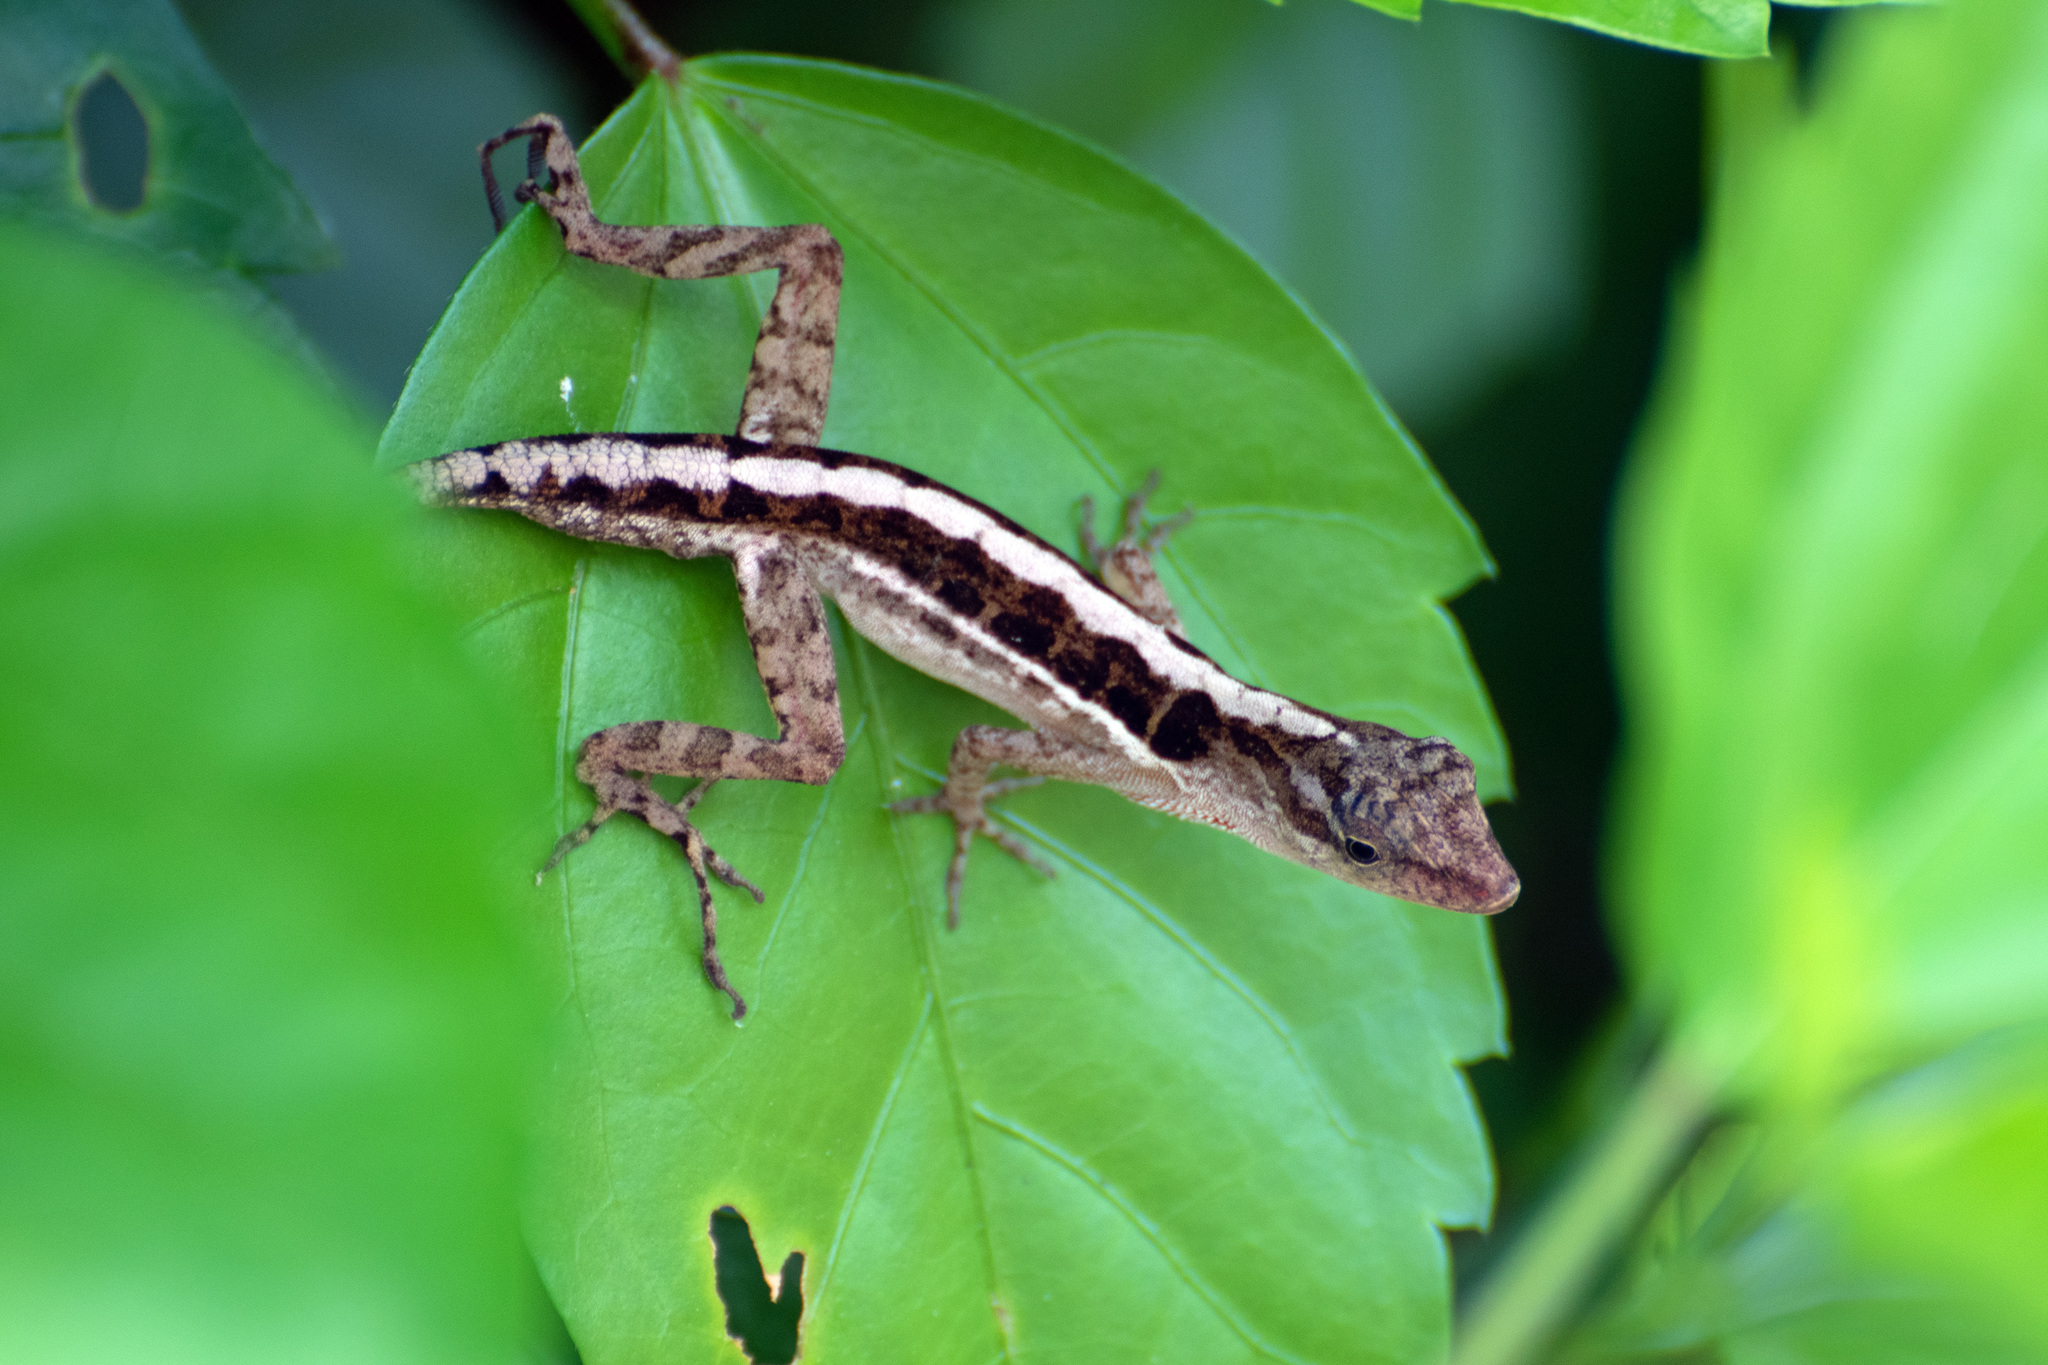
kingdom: Animalia
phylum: Chordata
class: Squamata
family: Dactyloidae
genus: Anolis
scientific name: Anolis cupreus
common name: Copper anole
